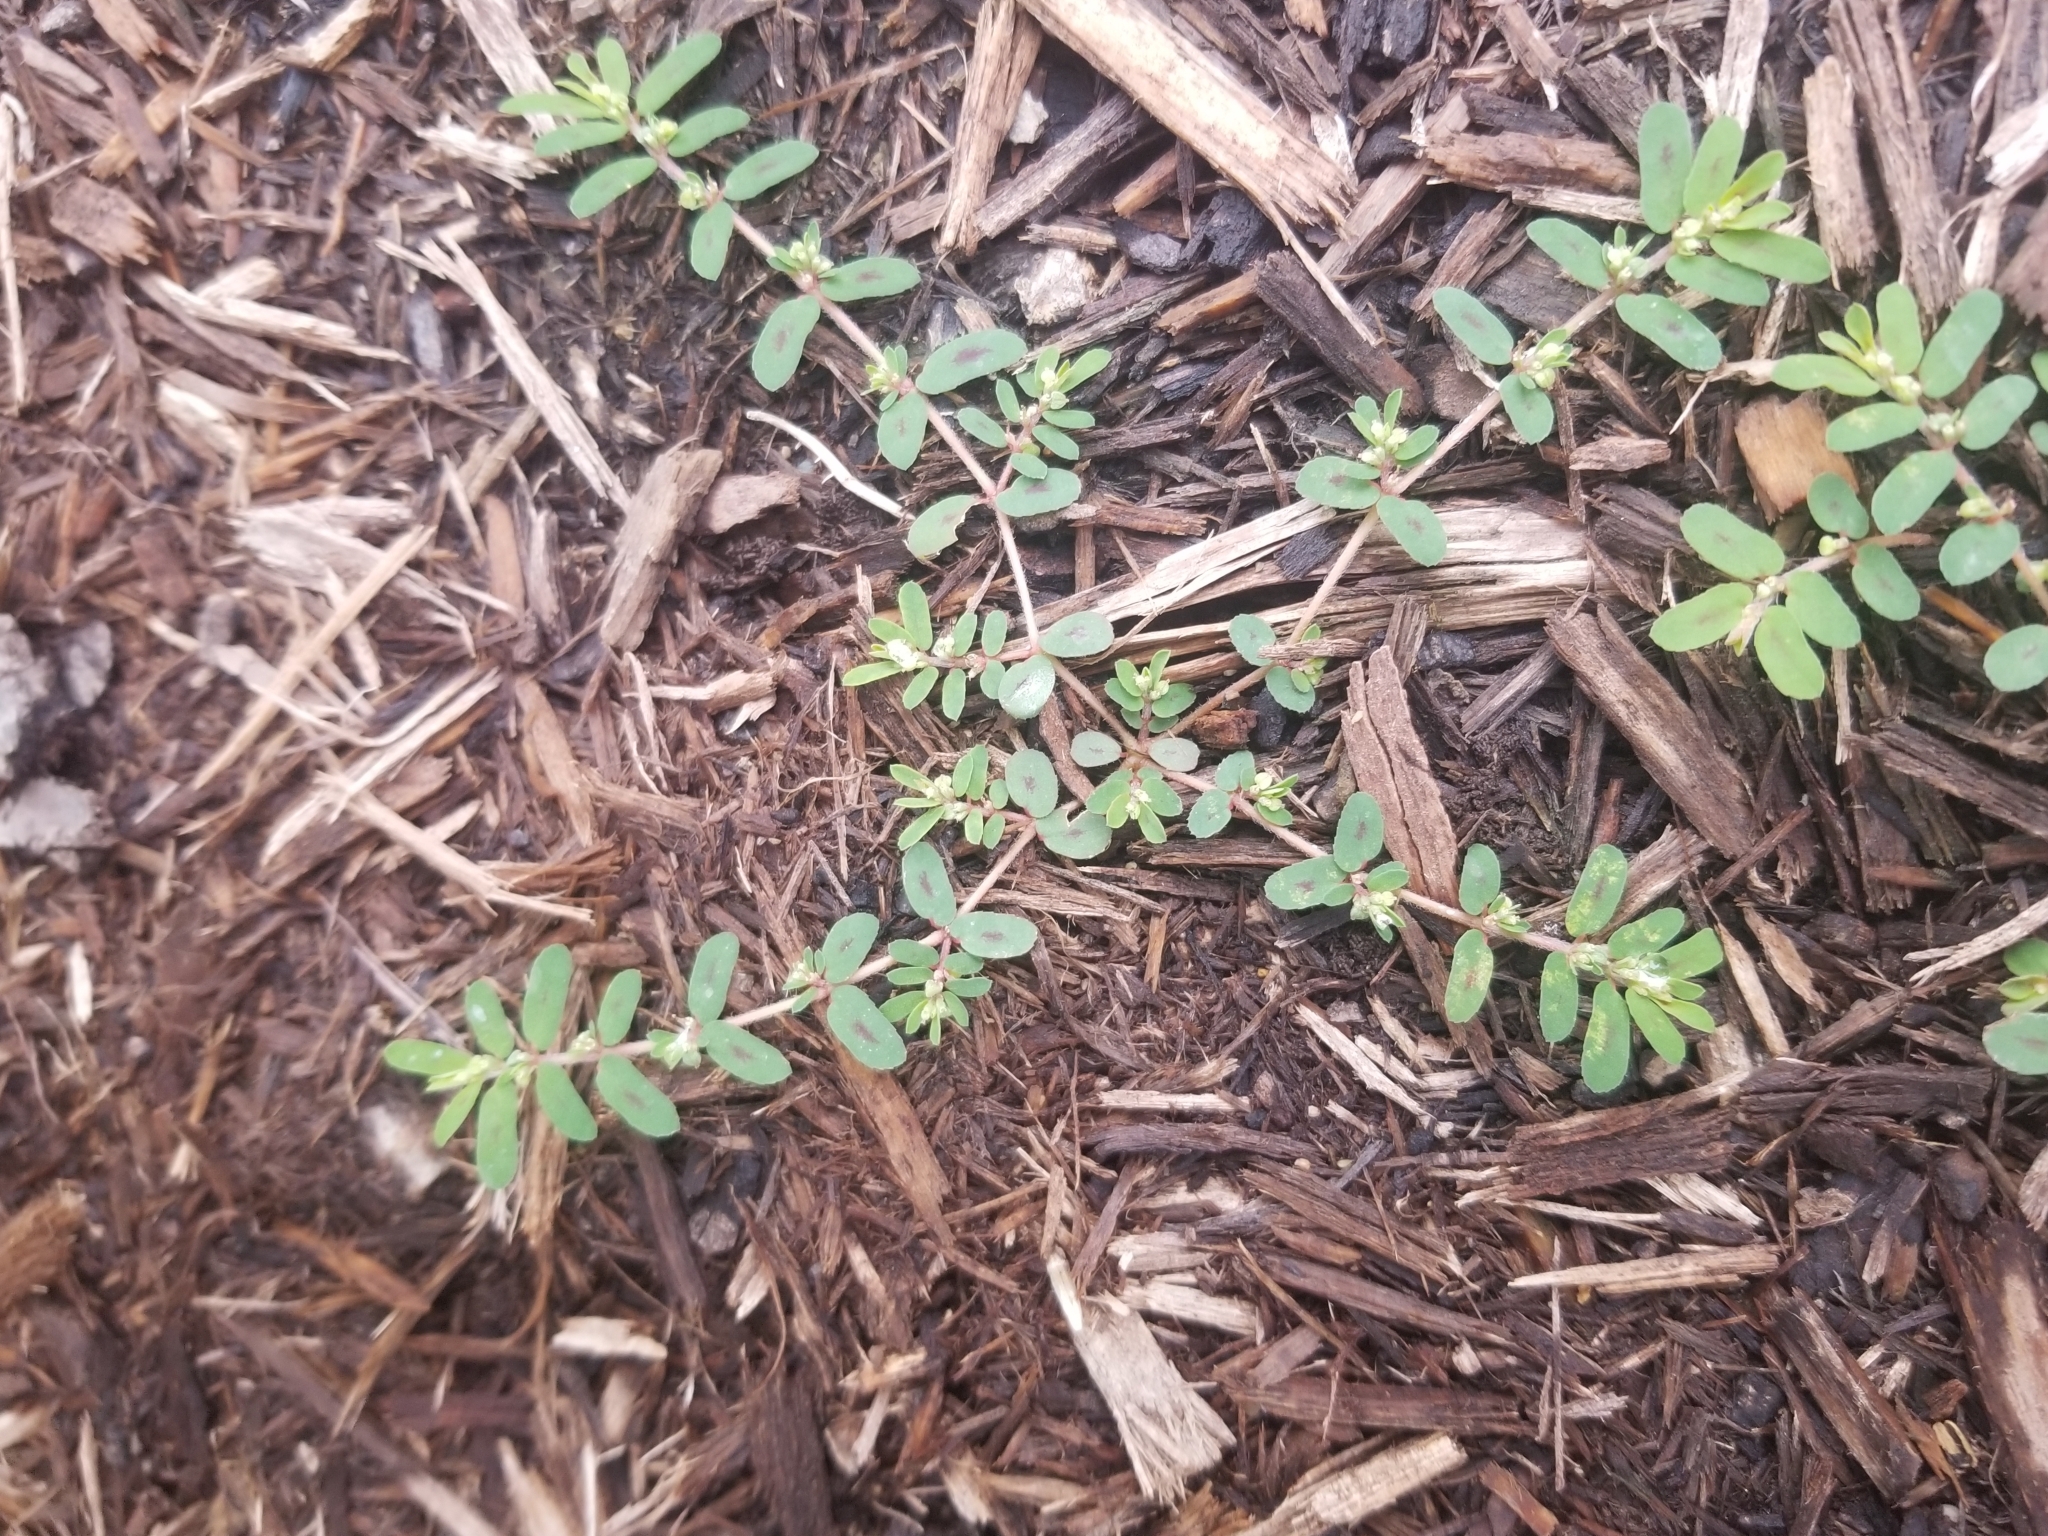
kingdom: Plantae
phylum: Tracheophyta
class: Magnoliopsida
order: Malpighiales
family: Euphorbiaceae
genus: Euphorbia
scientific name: Euphorbia maculata
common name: Spotted spurge
